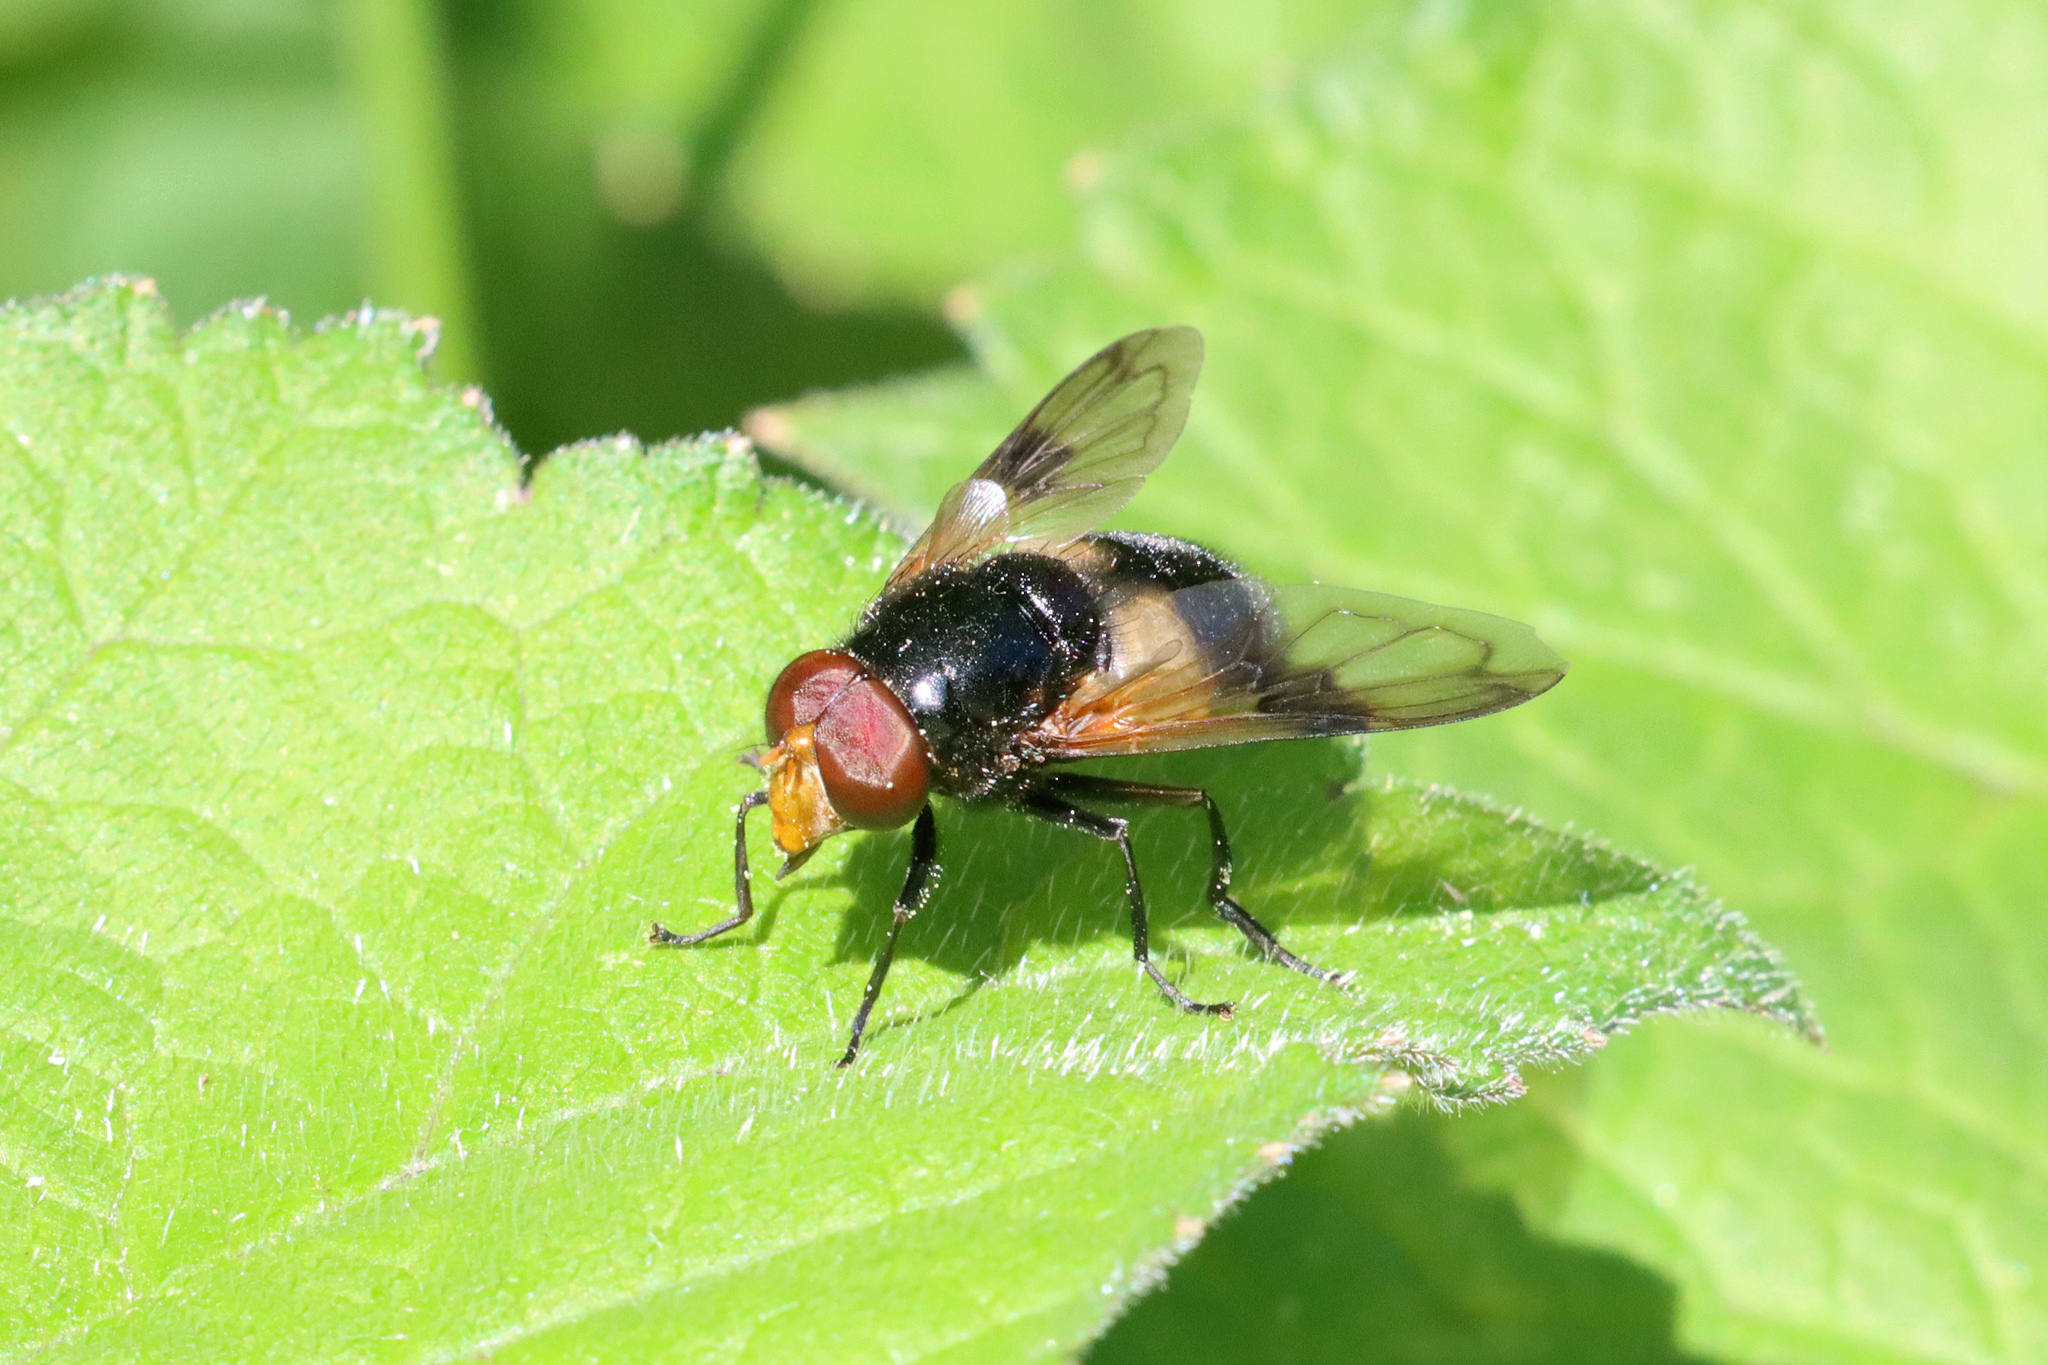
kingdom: Animalia
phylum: Arthropoda
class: Insecta
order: Diptera
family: Syrphidae
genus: Volucella
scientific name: Volucella pellucens
